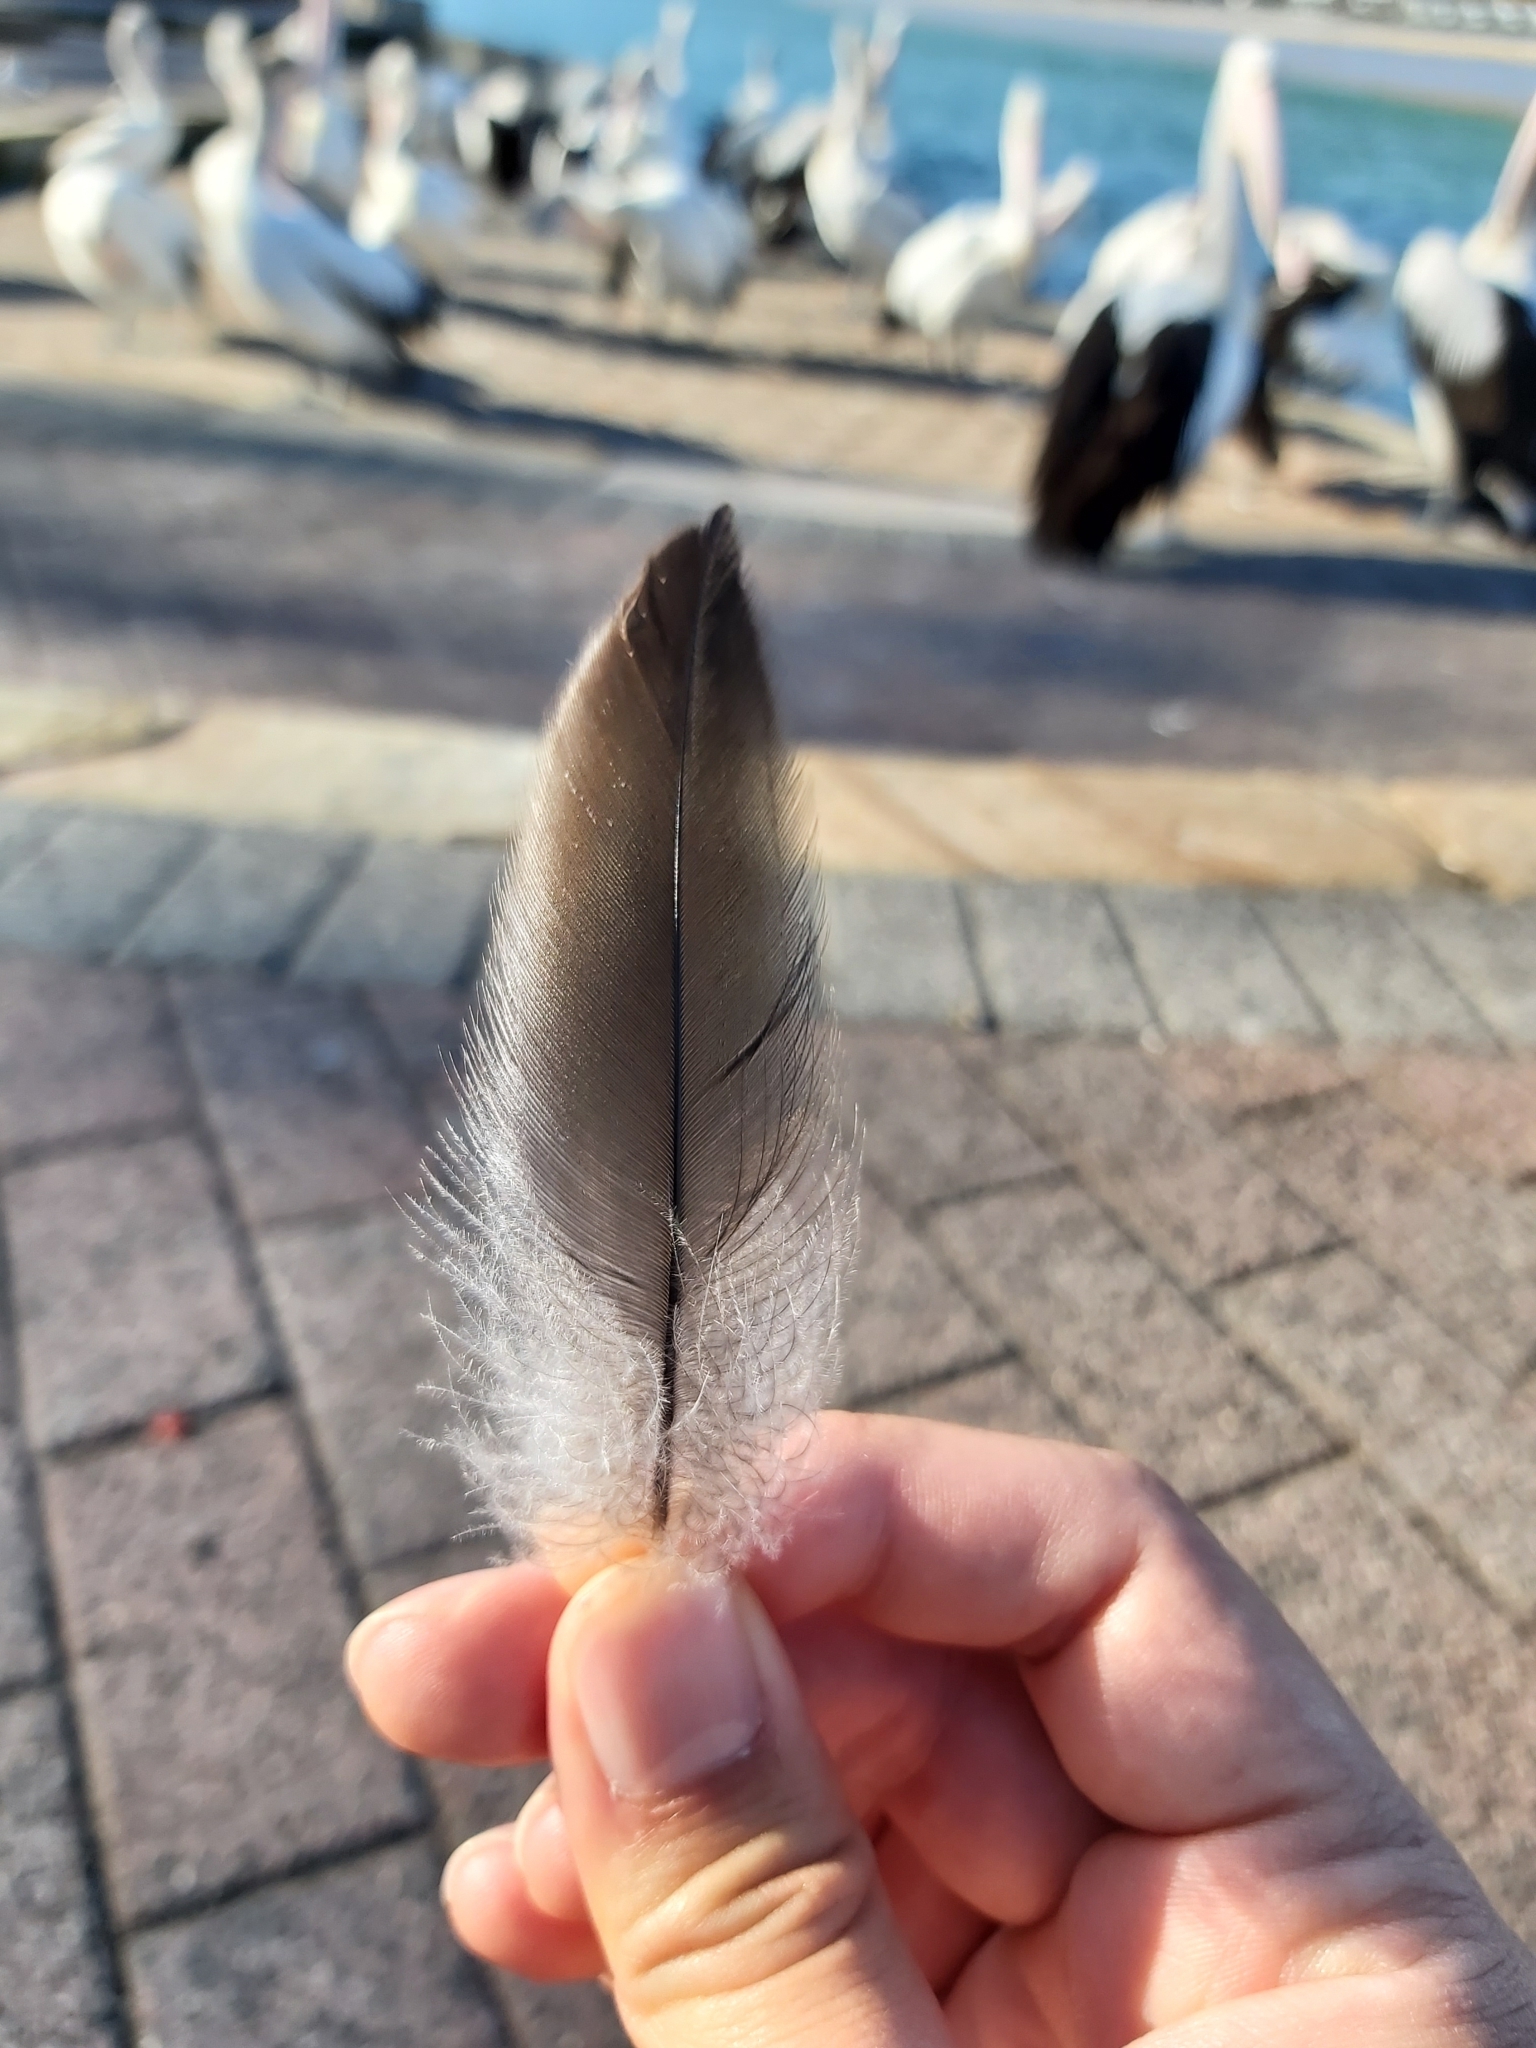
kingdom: Animalia
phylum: Chordata
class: Aves
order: Pelecaniformes
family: Pelecanidae
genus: Pelecanus
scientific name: Pelecanus conspicillatus
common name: Australian pelican
